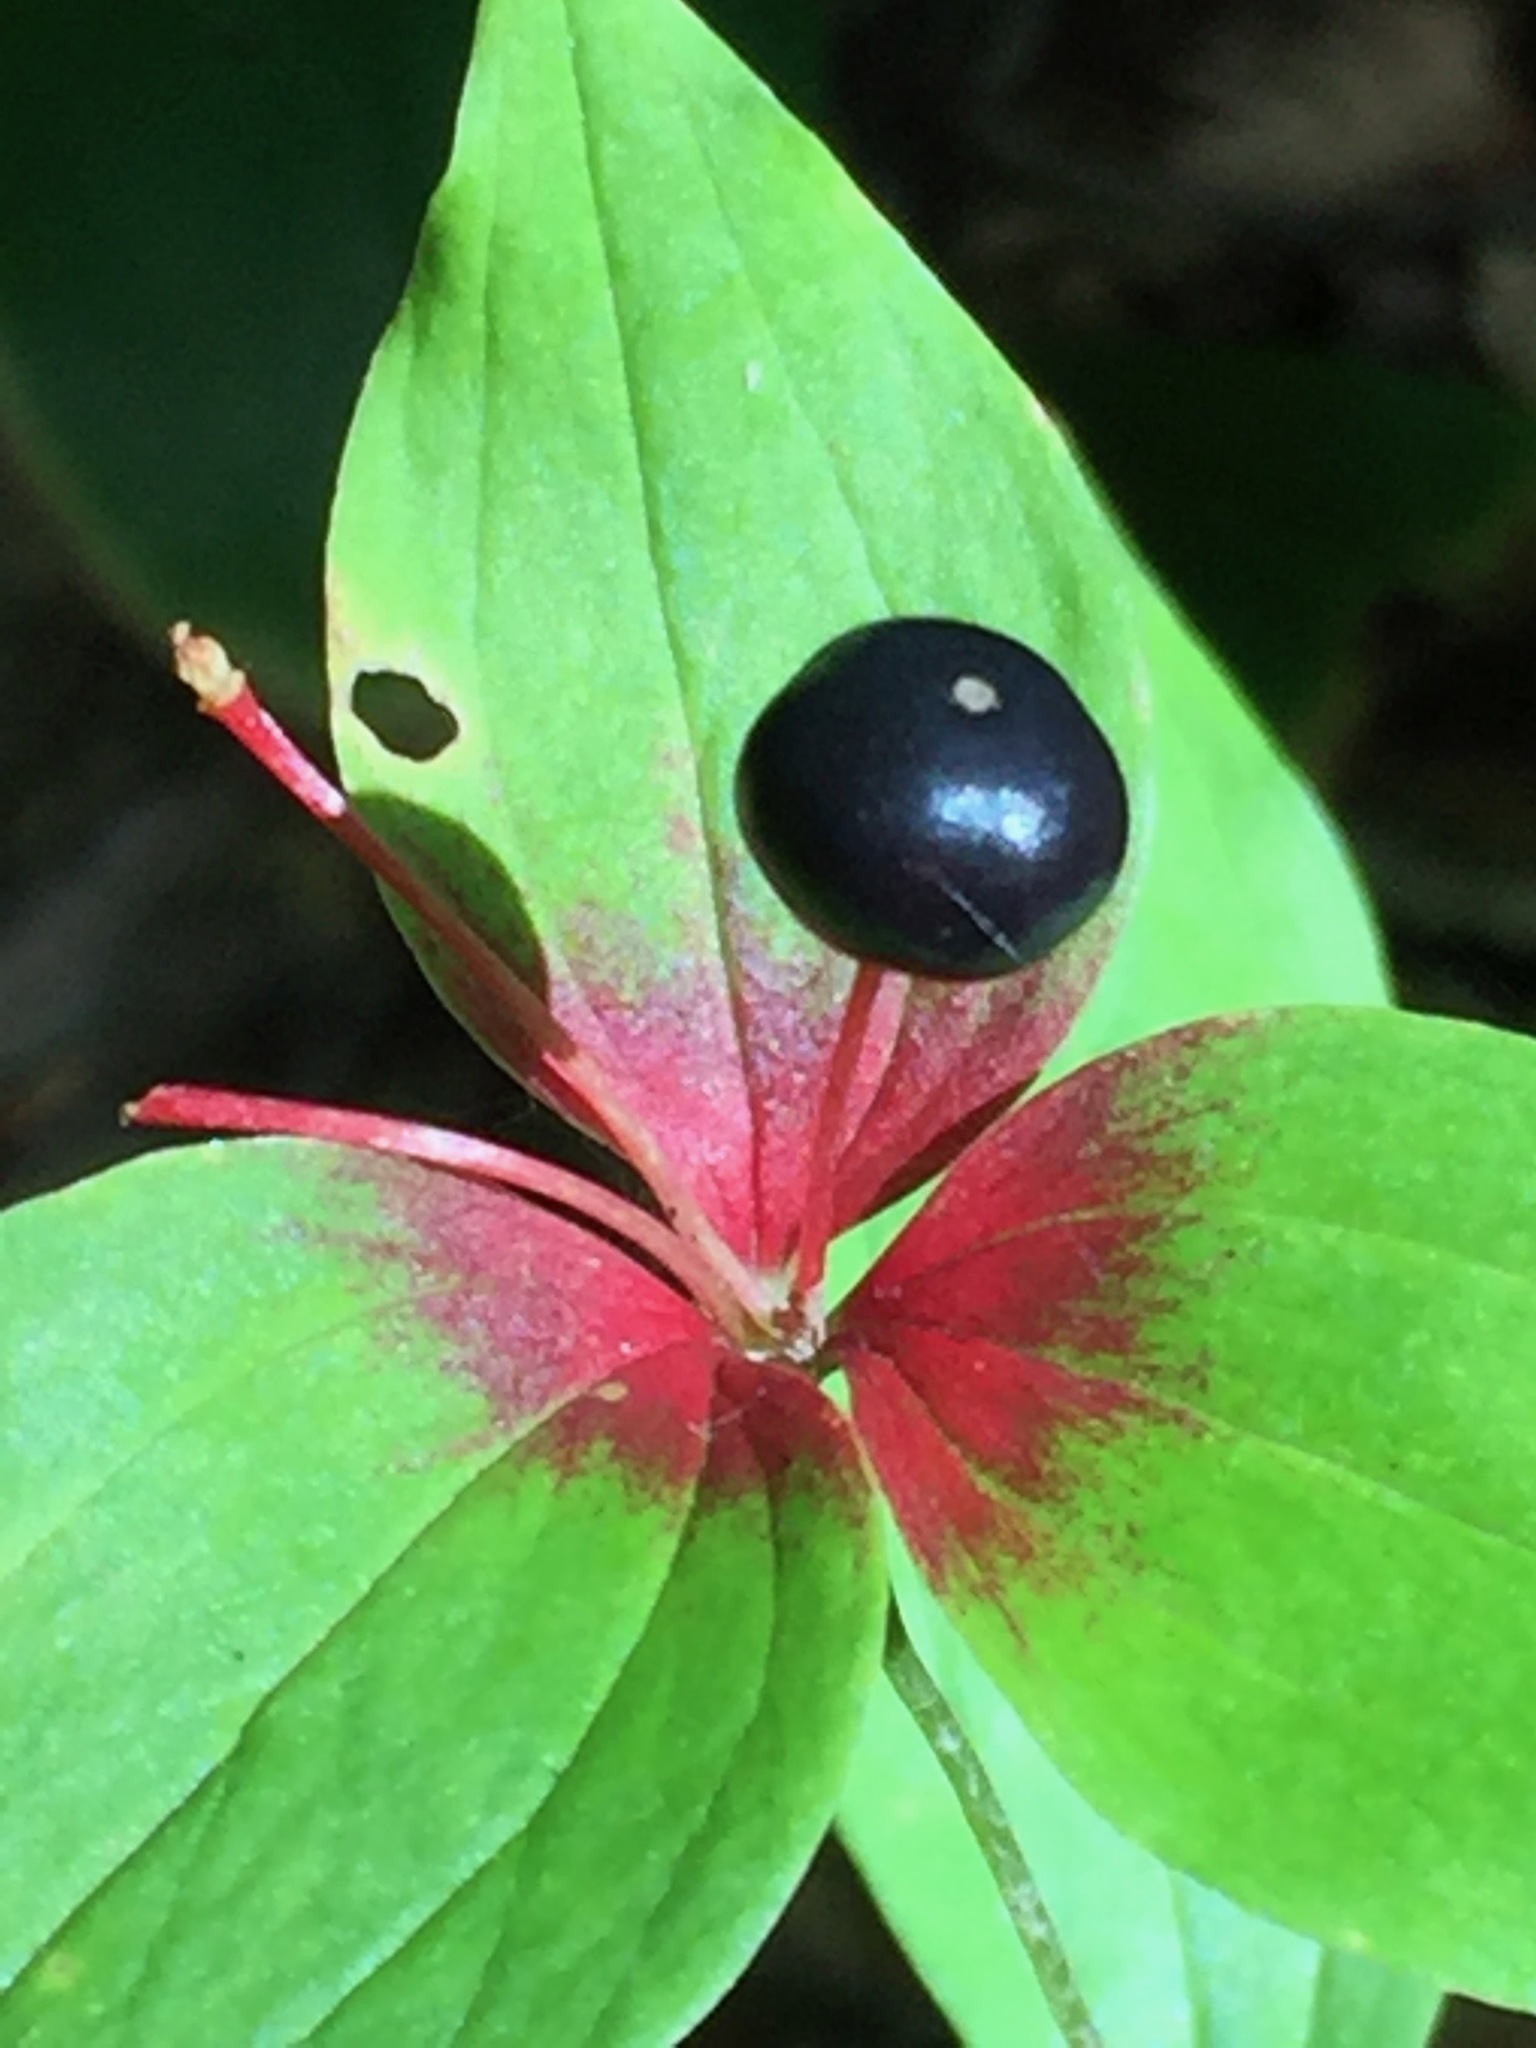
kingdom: Plantae
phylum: Tracheophyta
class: Liliopsida
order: Liliales
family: Liliaceae
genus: Medeola
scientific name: Medeola virginiana
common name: Indian cucumber-root
